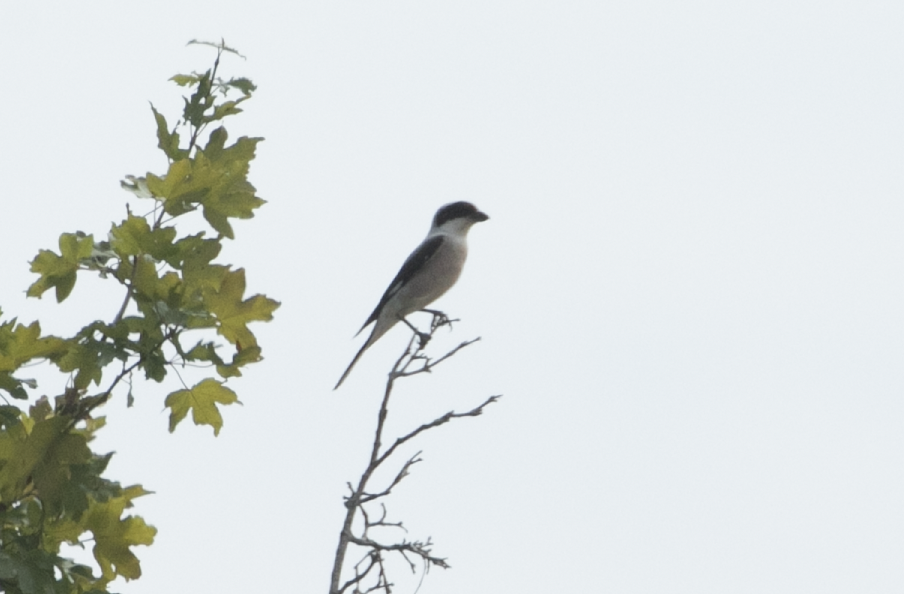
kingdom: Animalia
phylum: Chordata
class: Aves
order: Passeriformes
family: Laniidae
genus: Lanius
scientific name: Lanius minor
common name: Lesser grey shrike
